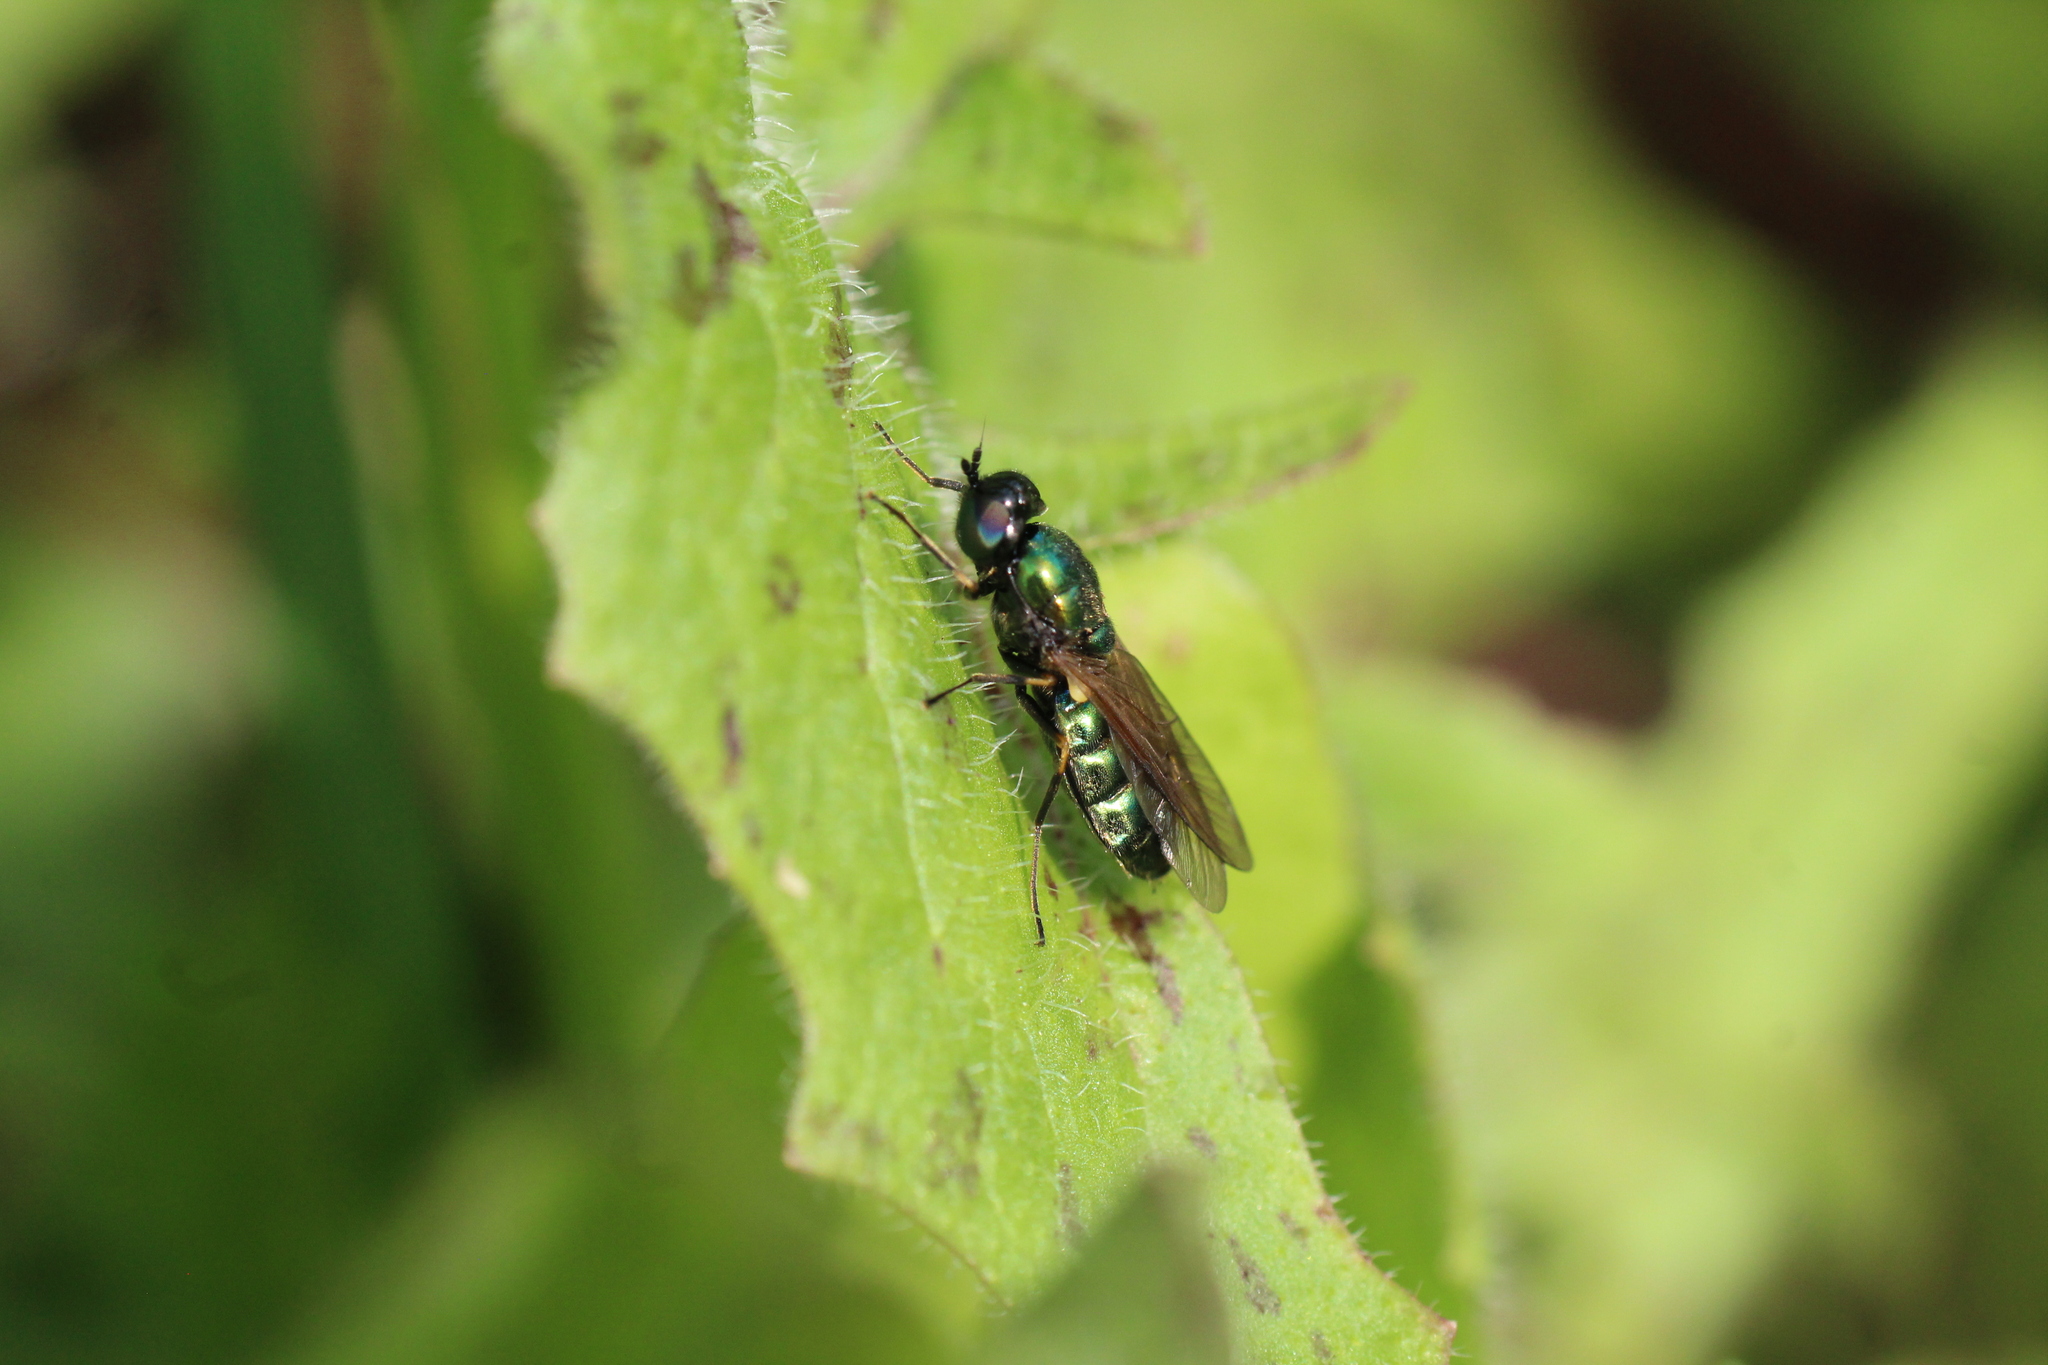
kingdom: Animalia
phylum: Arthropoda
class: Insecta
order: Diptera
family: Stratiomyidae
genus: Chloromyia
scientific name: Chloromyia formosa
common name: Soldier fly
